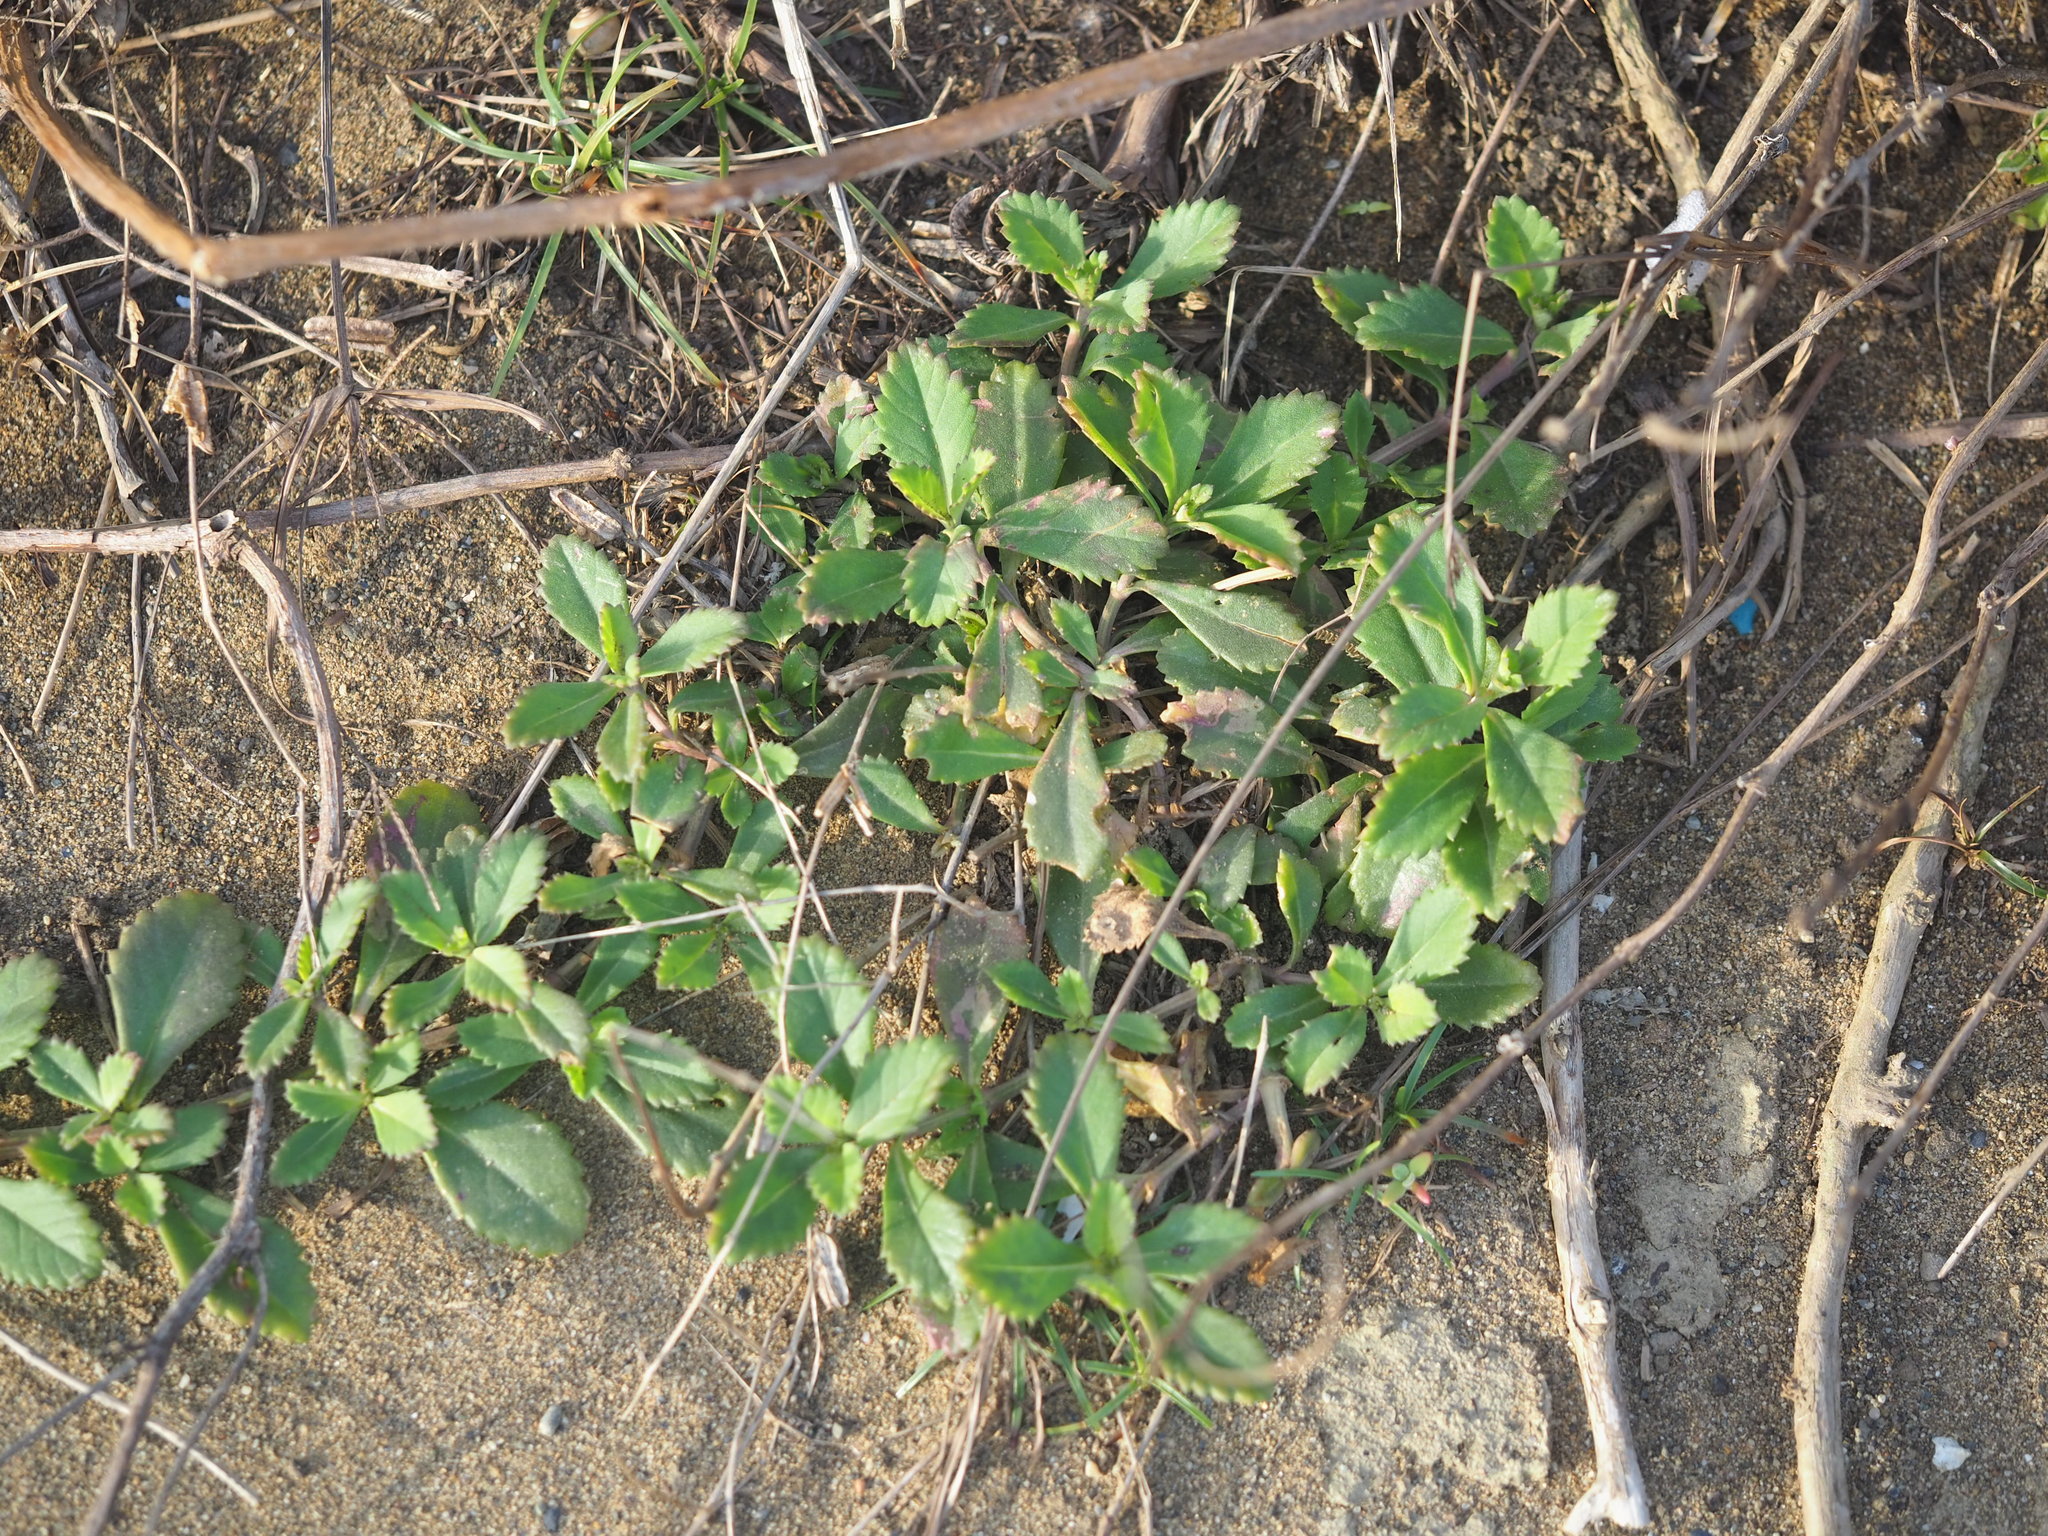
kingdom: Plantae
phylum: Tracheophyta
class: Magnoliopsida
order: Lamiales
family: Verbenaceae
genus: Phyla
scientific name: Phyla nodiflora
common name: Frogfruit
